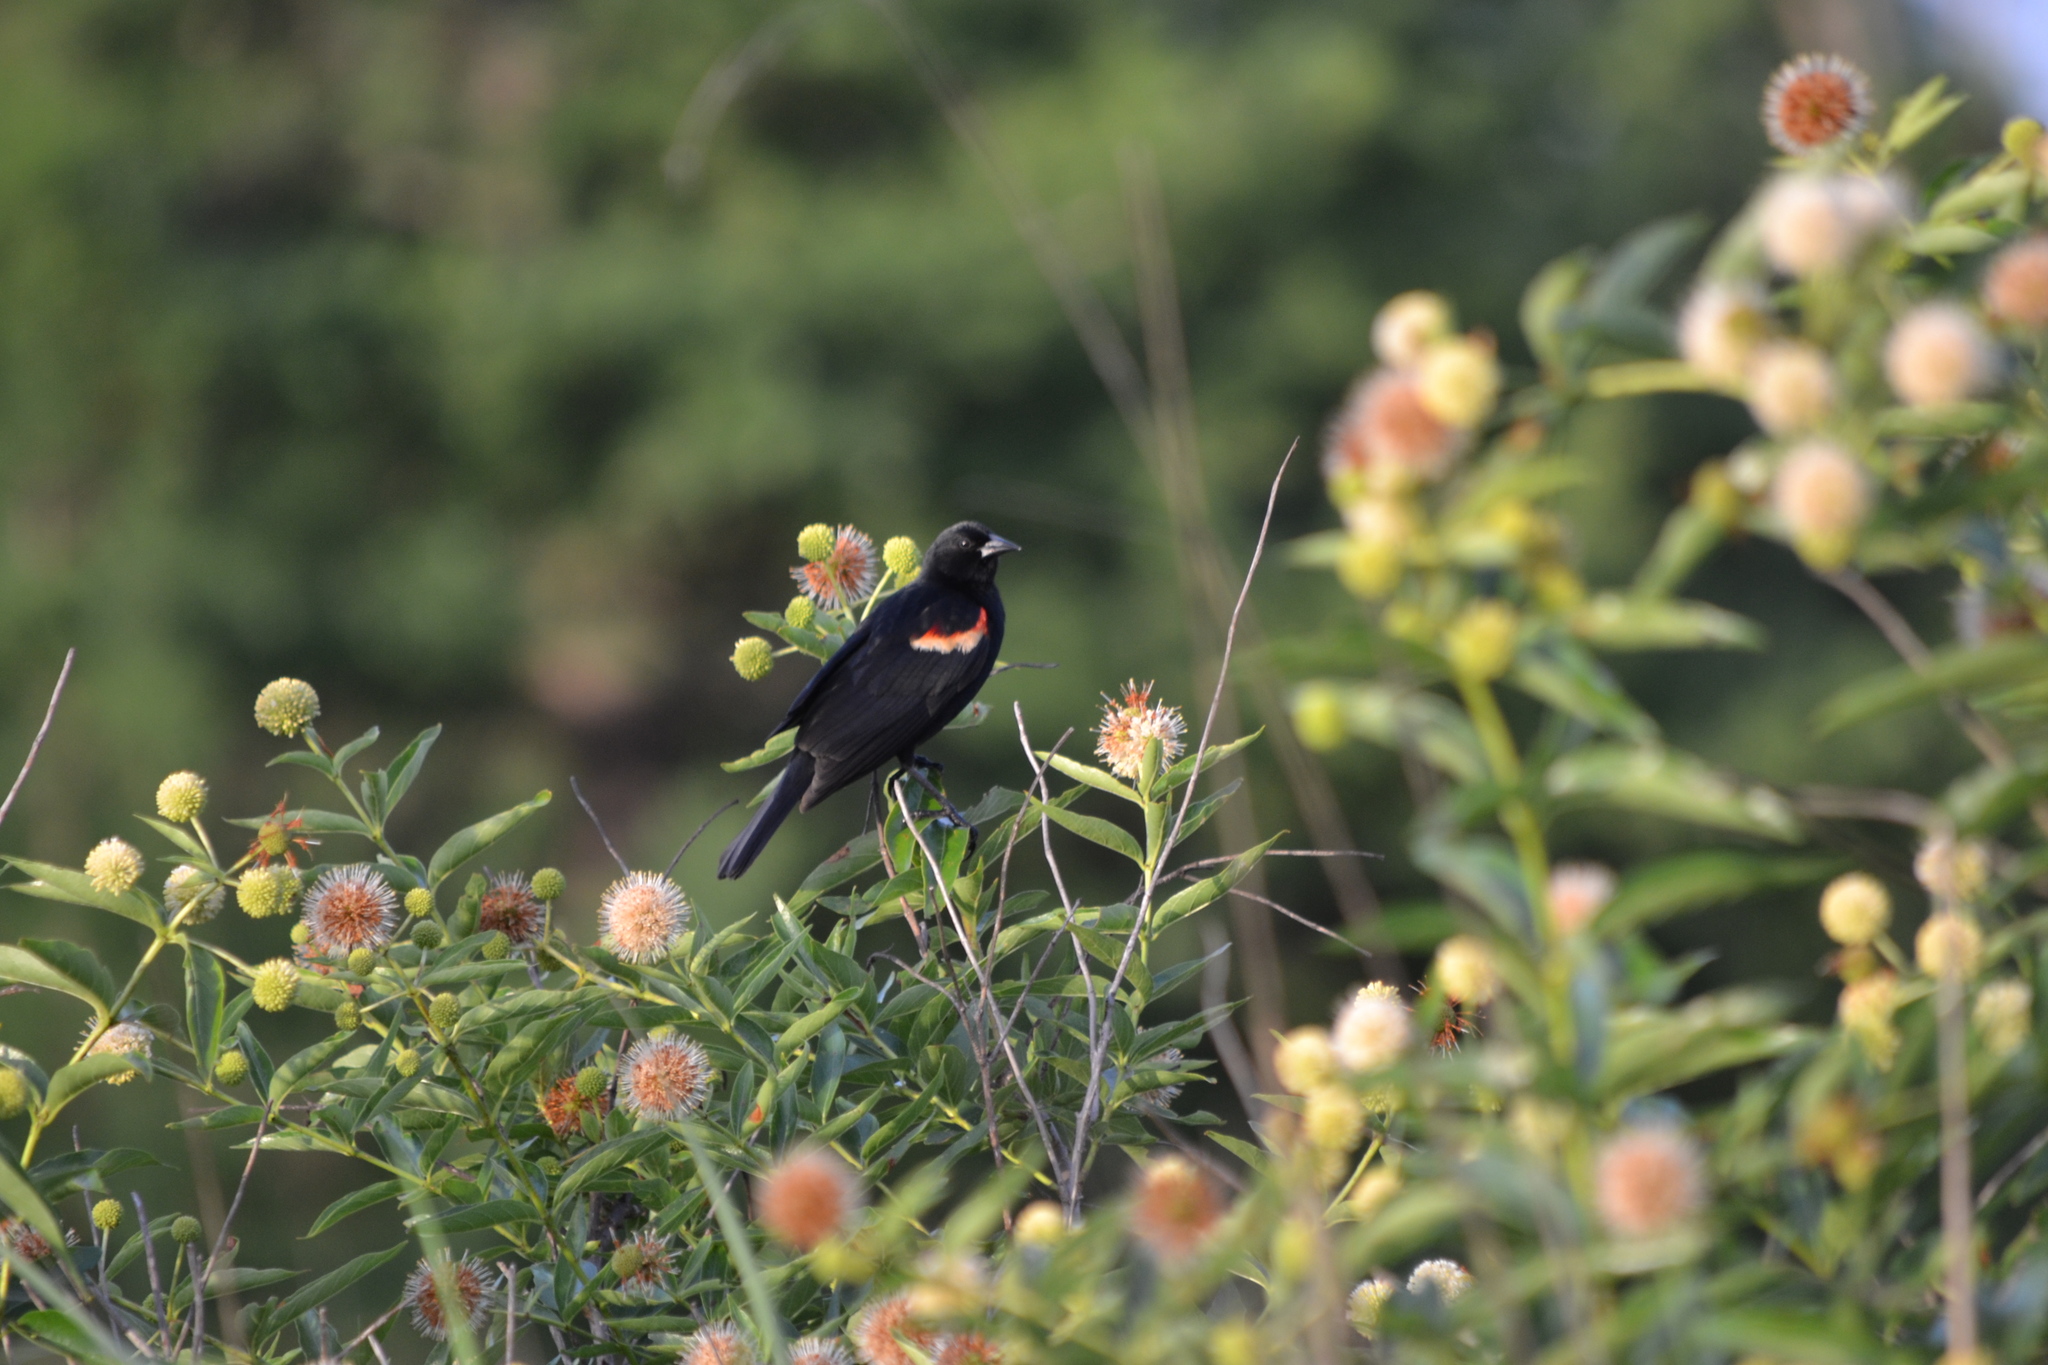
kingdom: Animalia
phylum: Chordata
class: Aves
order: Passeriformes
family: Icteridae
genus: Agelaius
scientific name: Agelaius phoeniceus
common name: Red-winged blackbird
